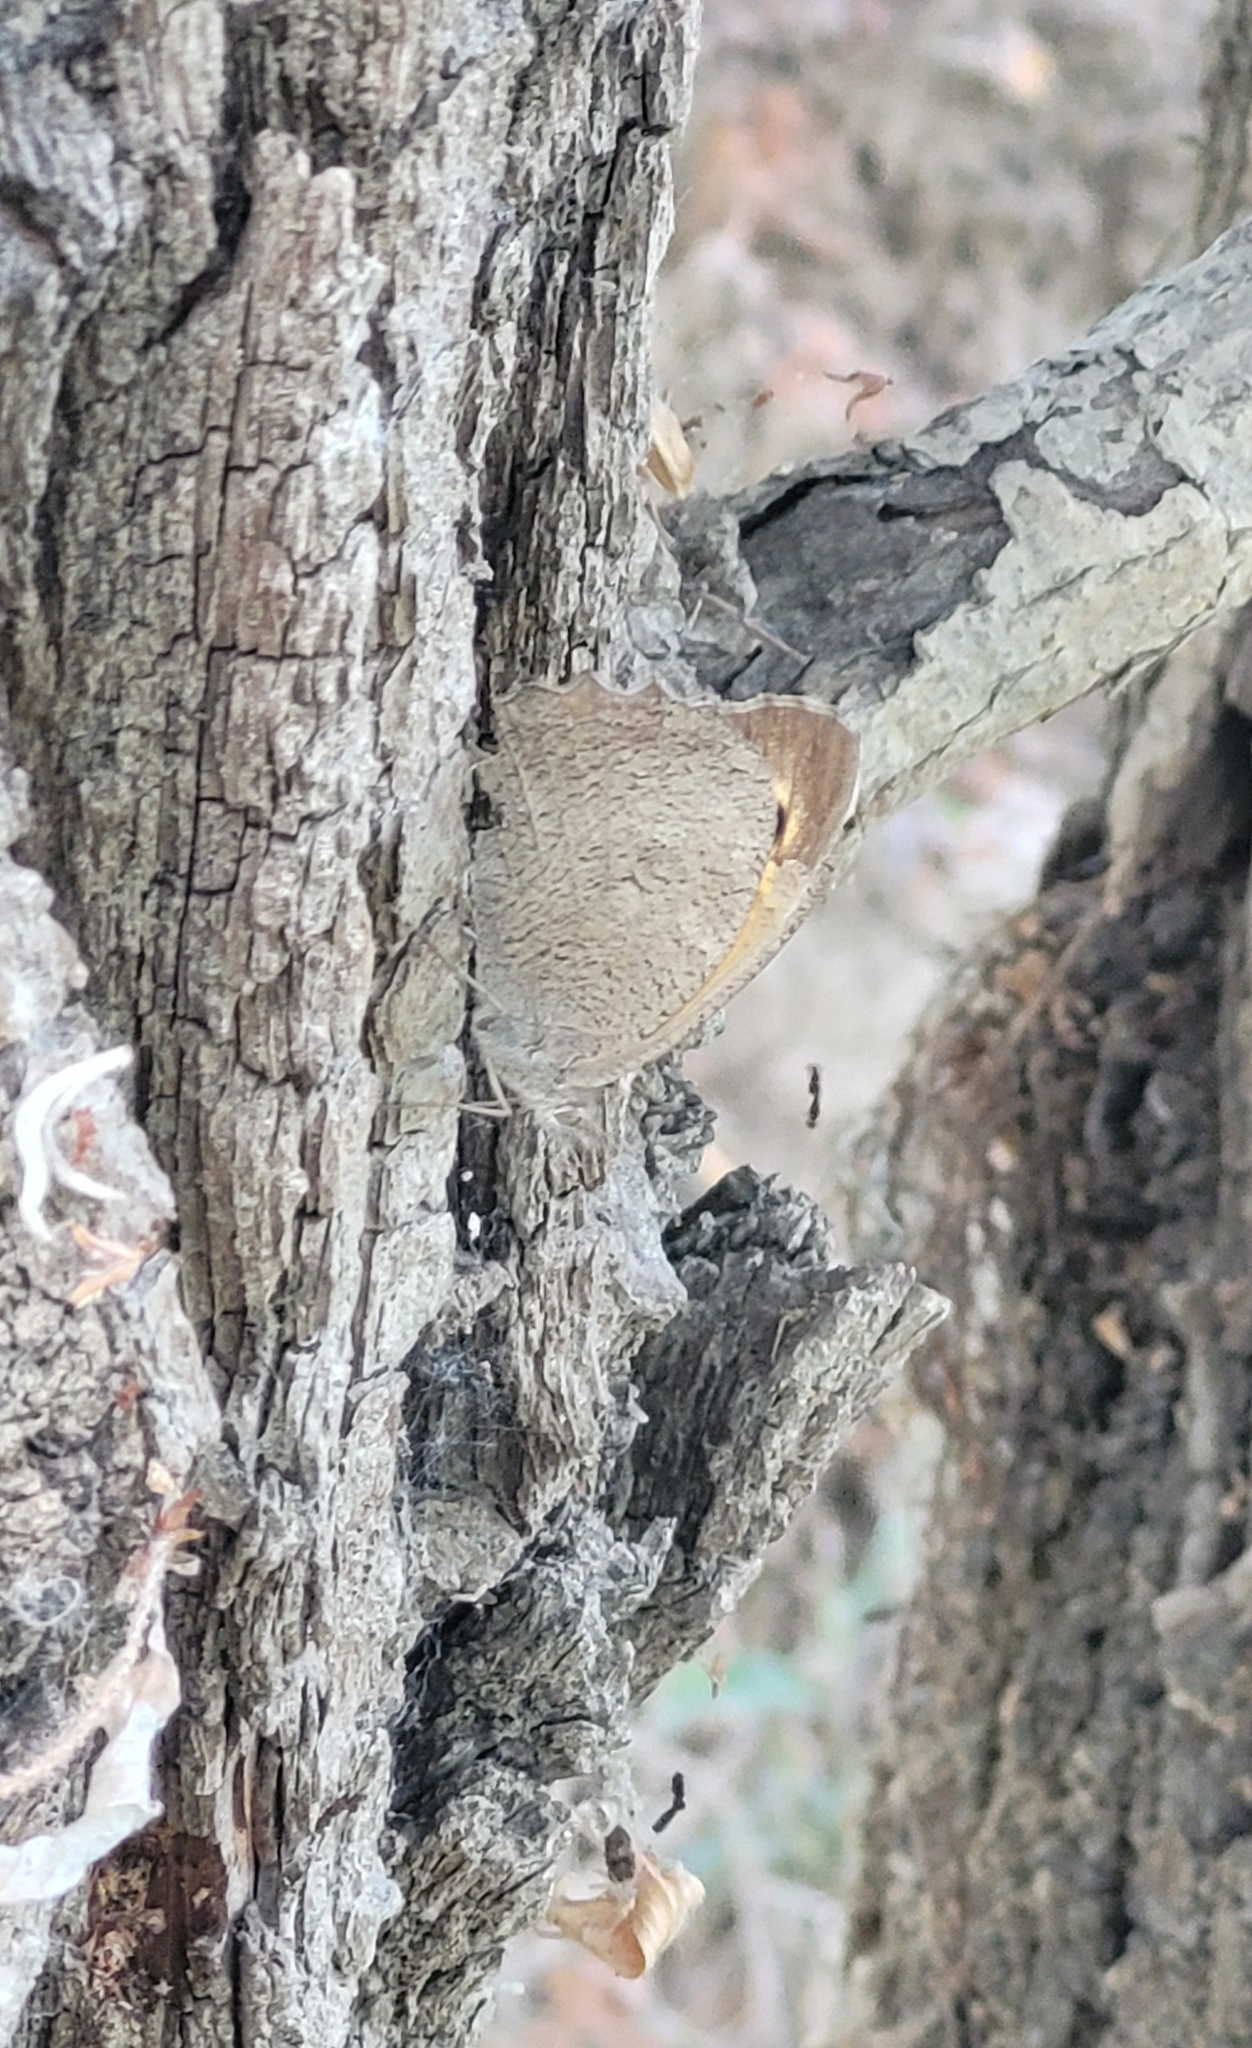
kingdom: Animalia
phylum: Arthropoda
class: Insecta
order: Lepidoptera
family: Nymphalidae
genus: Hyponephele
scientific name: Hyponephele lupinus
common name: Oriental meadow brown
